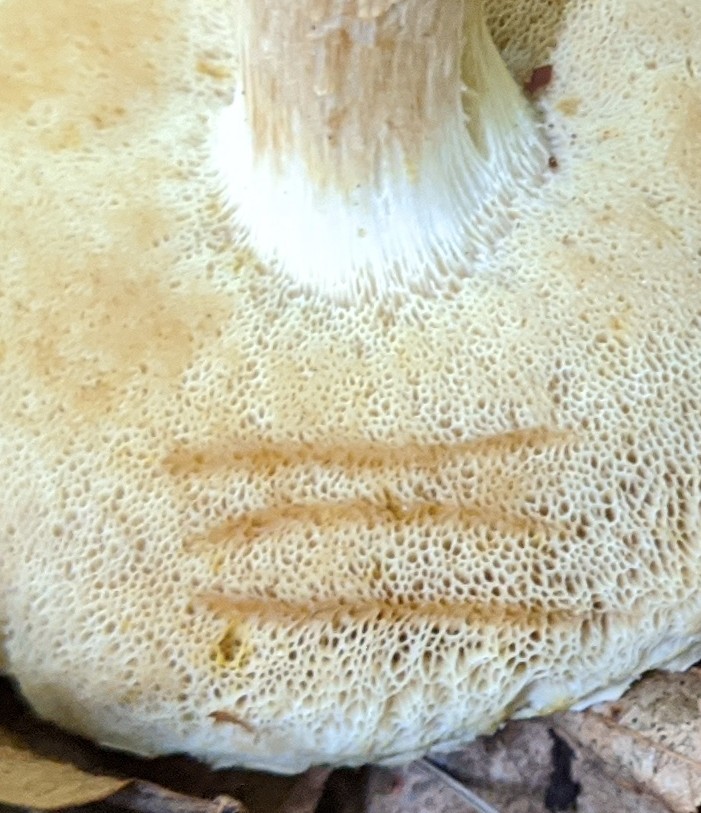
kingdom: Fungi
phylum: Basidiomycota
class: Agaricomycetes
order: Boletales
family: Boletaceae
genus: Xanthoconium
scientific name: Xanthoconium affine
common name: Spotted bolete
